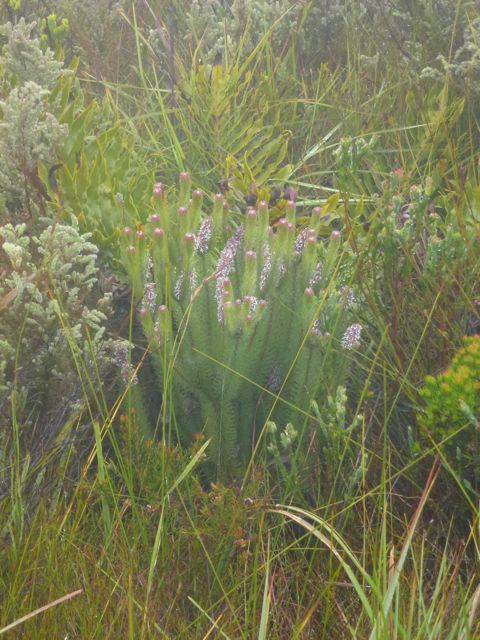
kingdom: Plantae
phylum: Tracheophyta
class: Magnoliopsida
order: Proteales
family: Proteaceae
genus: Spatalla
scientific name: Spatalla nubicola
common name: Medusa spoon
